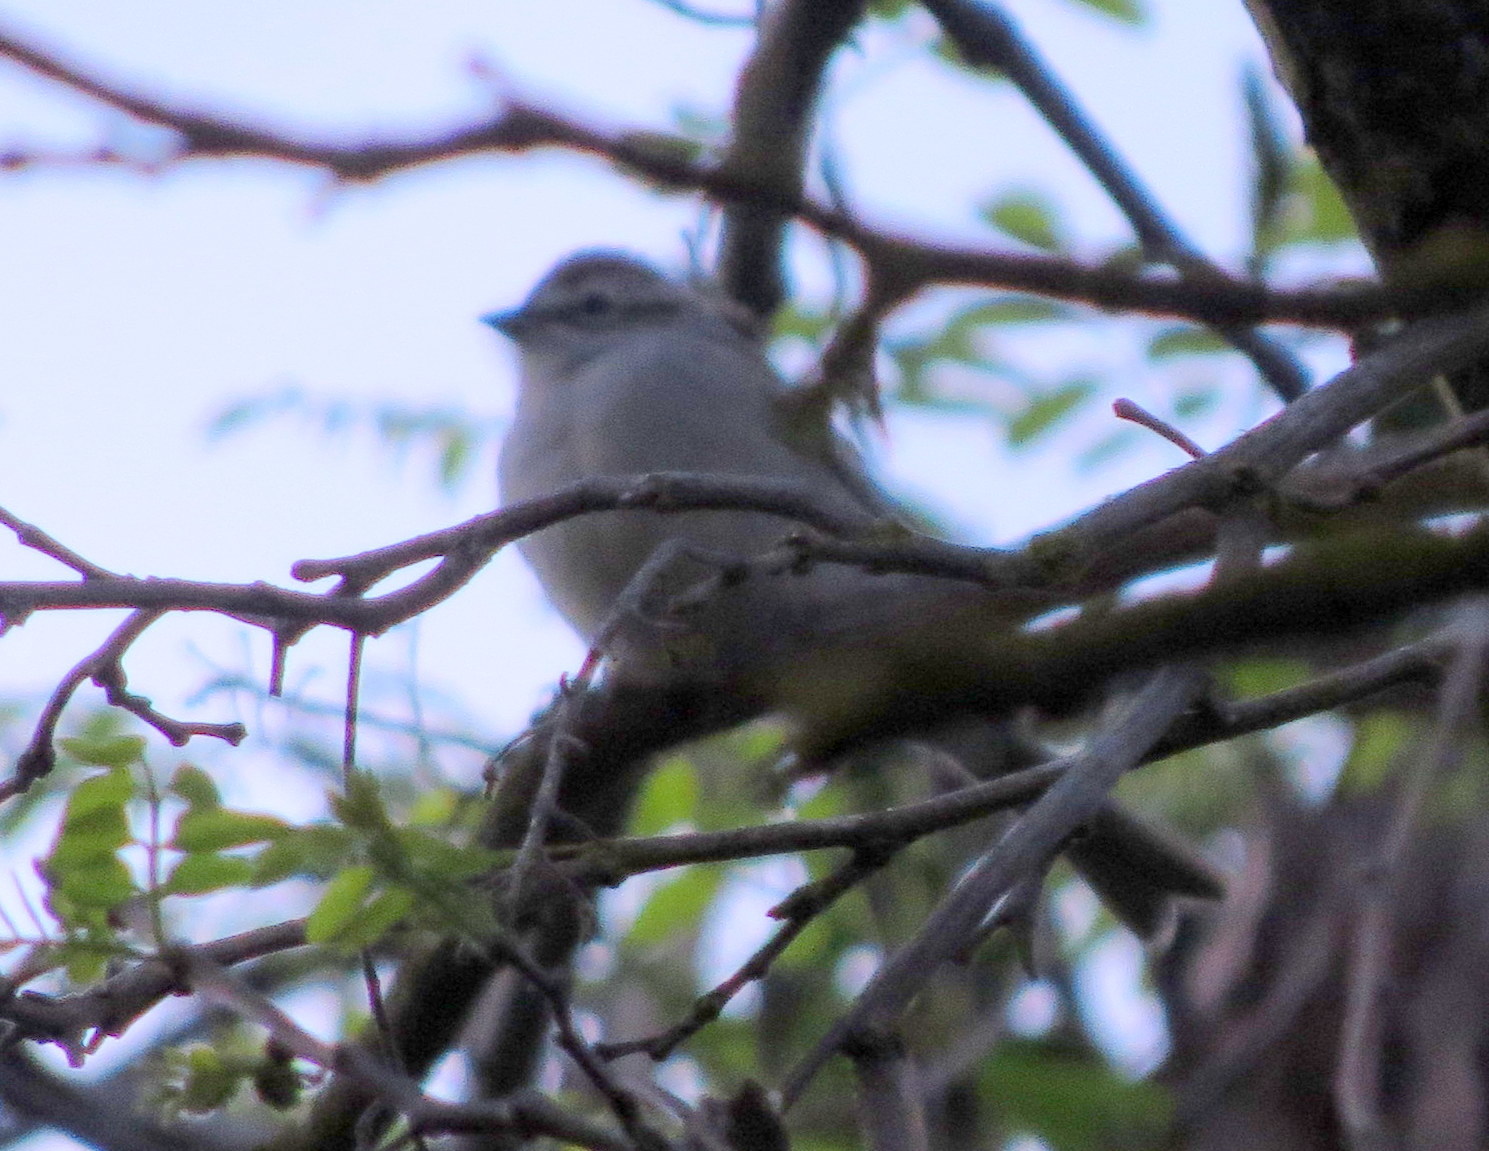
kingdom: Animalia
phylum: Chordata
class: Aves
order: Passeriformes
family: Passerellidae
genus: Spizella
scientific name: Spizella passerina
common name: Chipping sparrow
